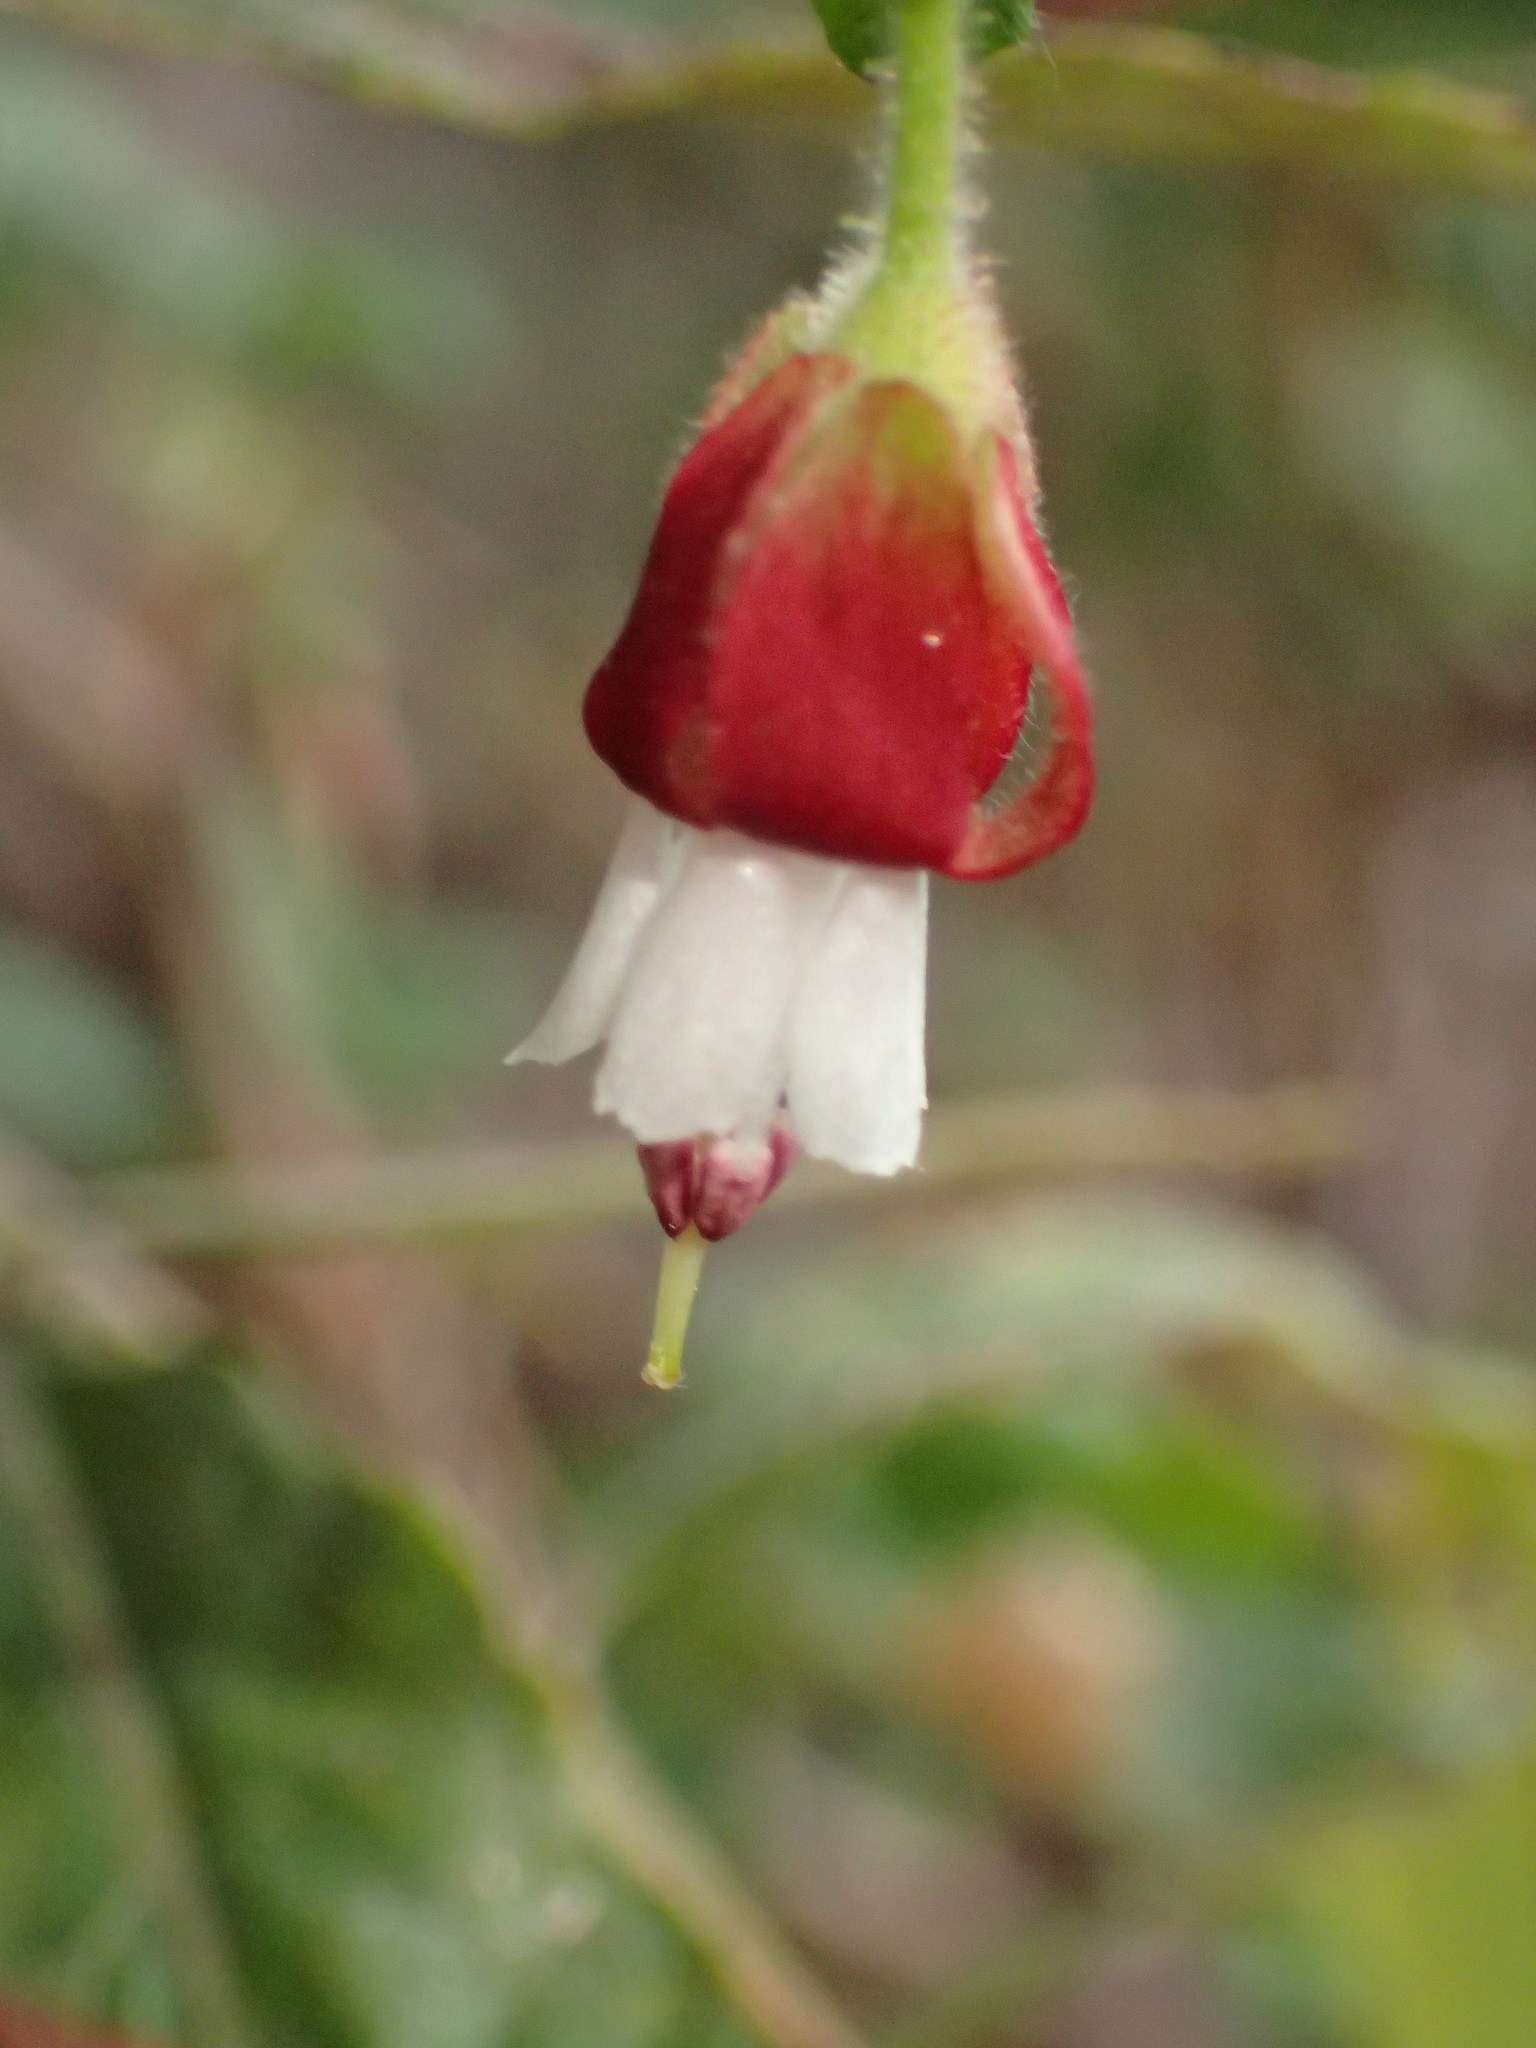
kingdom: Plantae
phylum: Tracheophyta
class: Magnoliopsida
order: Saxifragales
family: Grossulariaceae
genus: Ribes
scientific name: Ribes amarum
